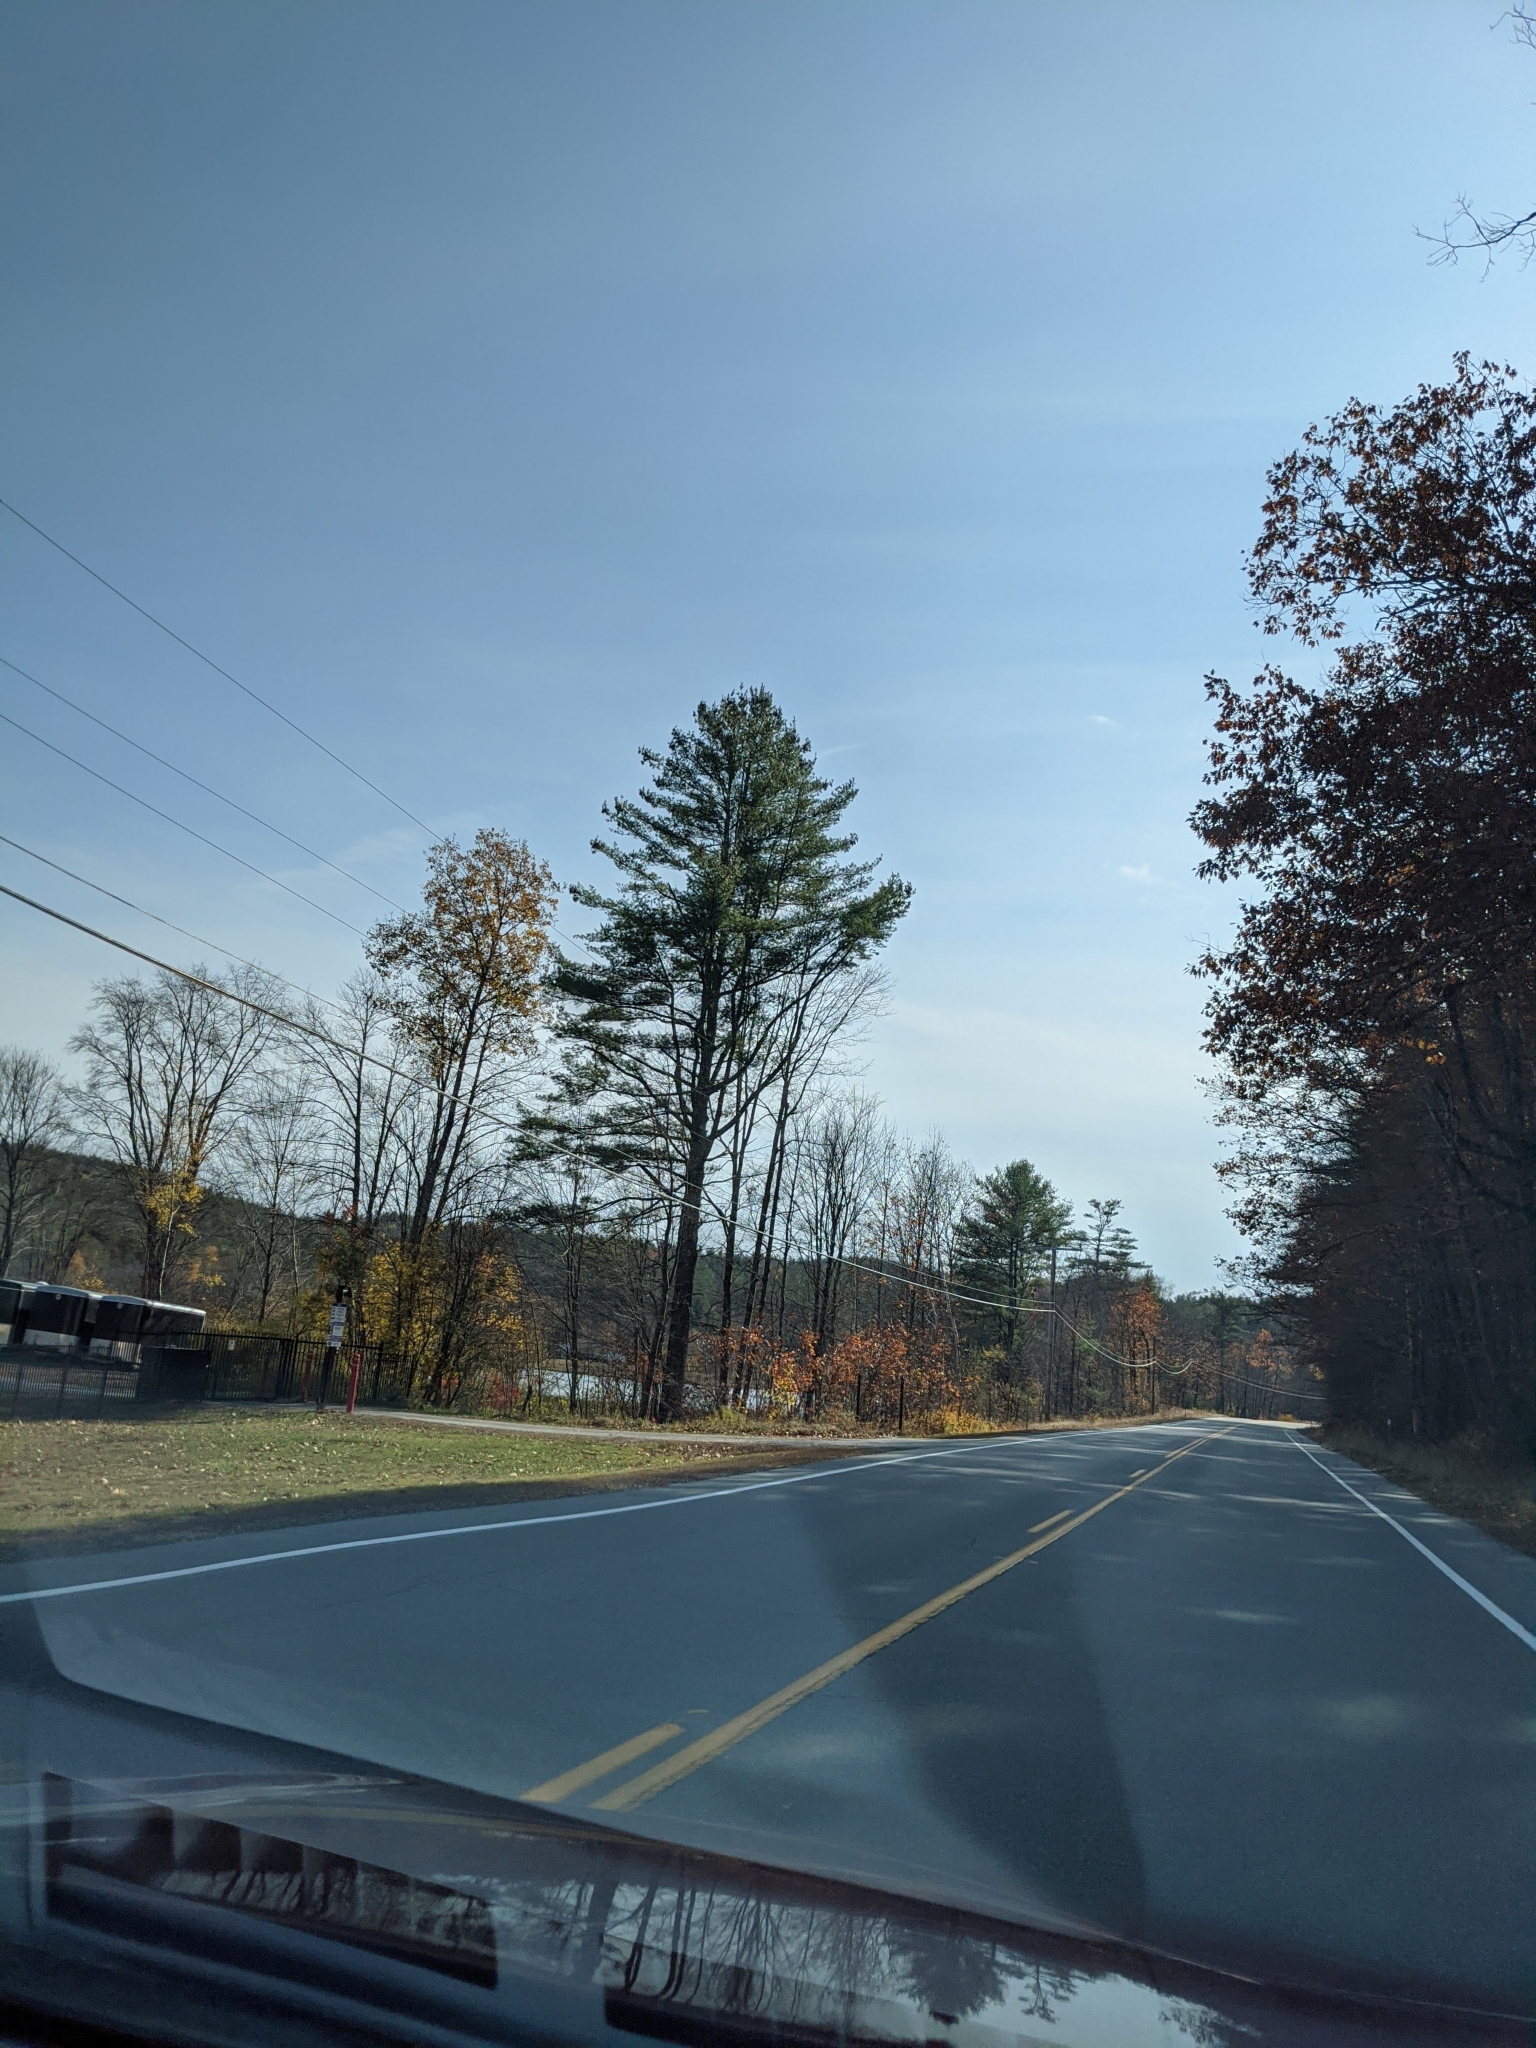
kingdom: Plantae
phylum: Tracheophyta
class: Pinopsida
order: Pinales
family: Pinaceae
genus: Pinus
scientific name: Pinus strobus
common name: Weymouth pine
